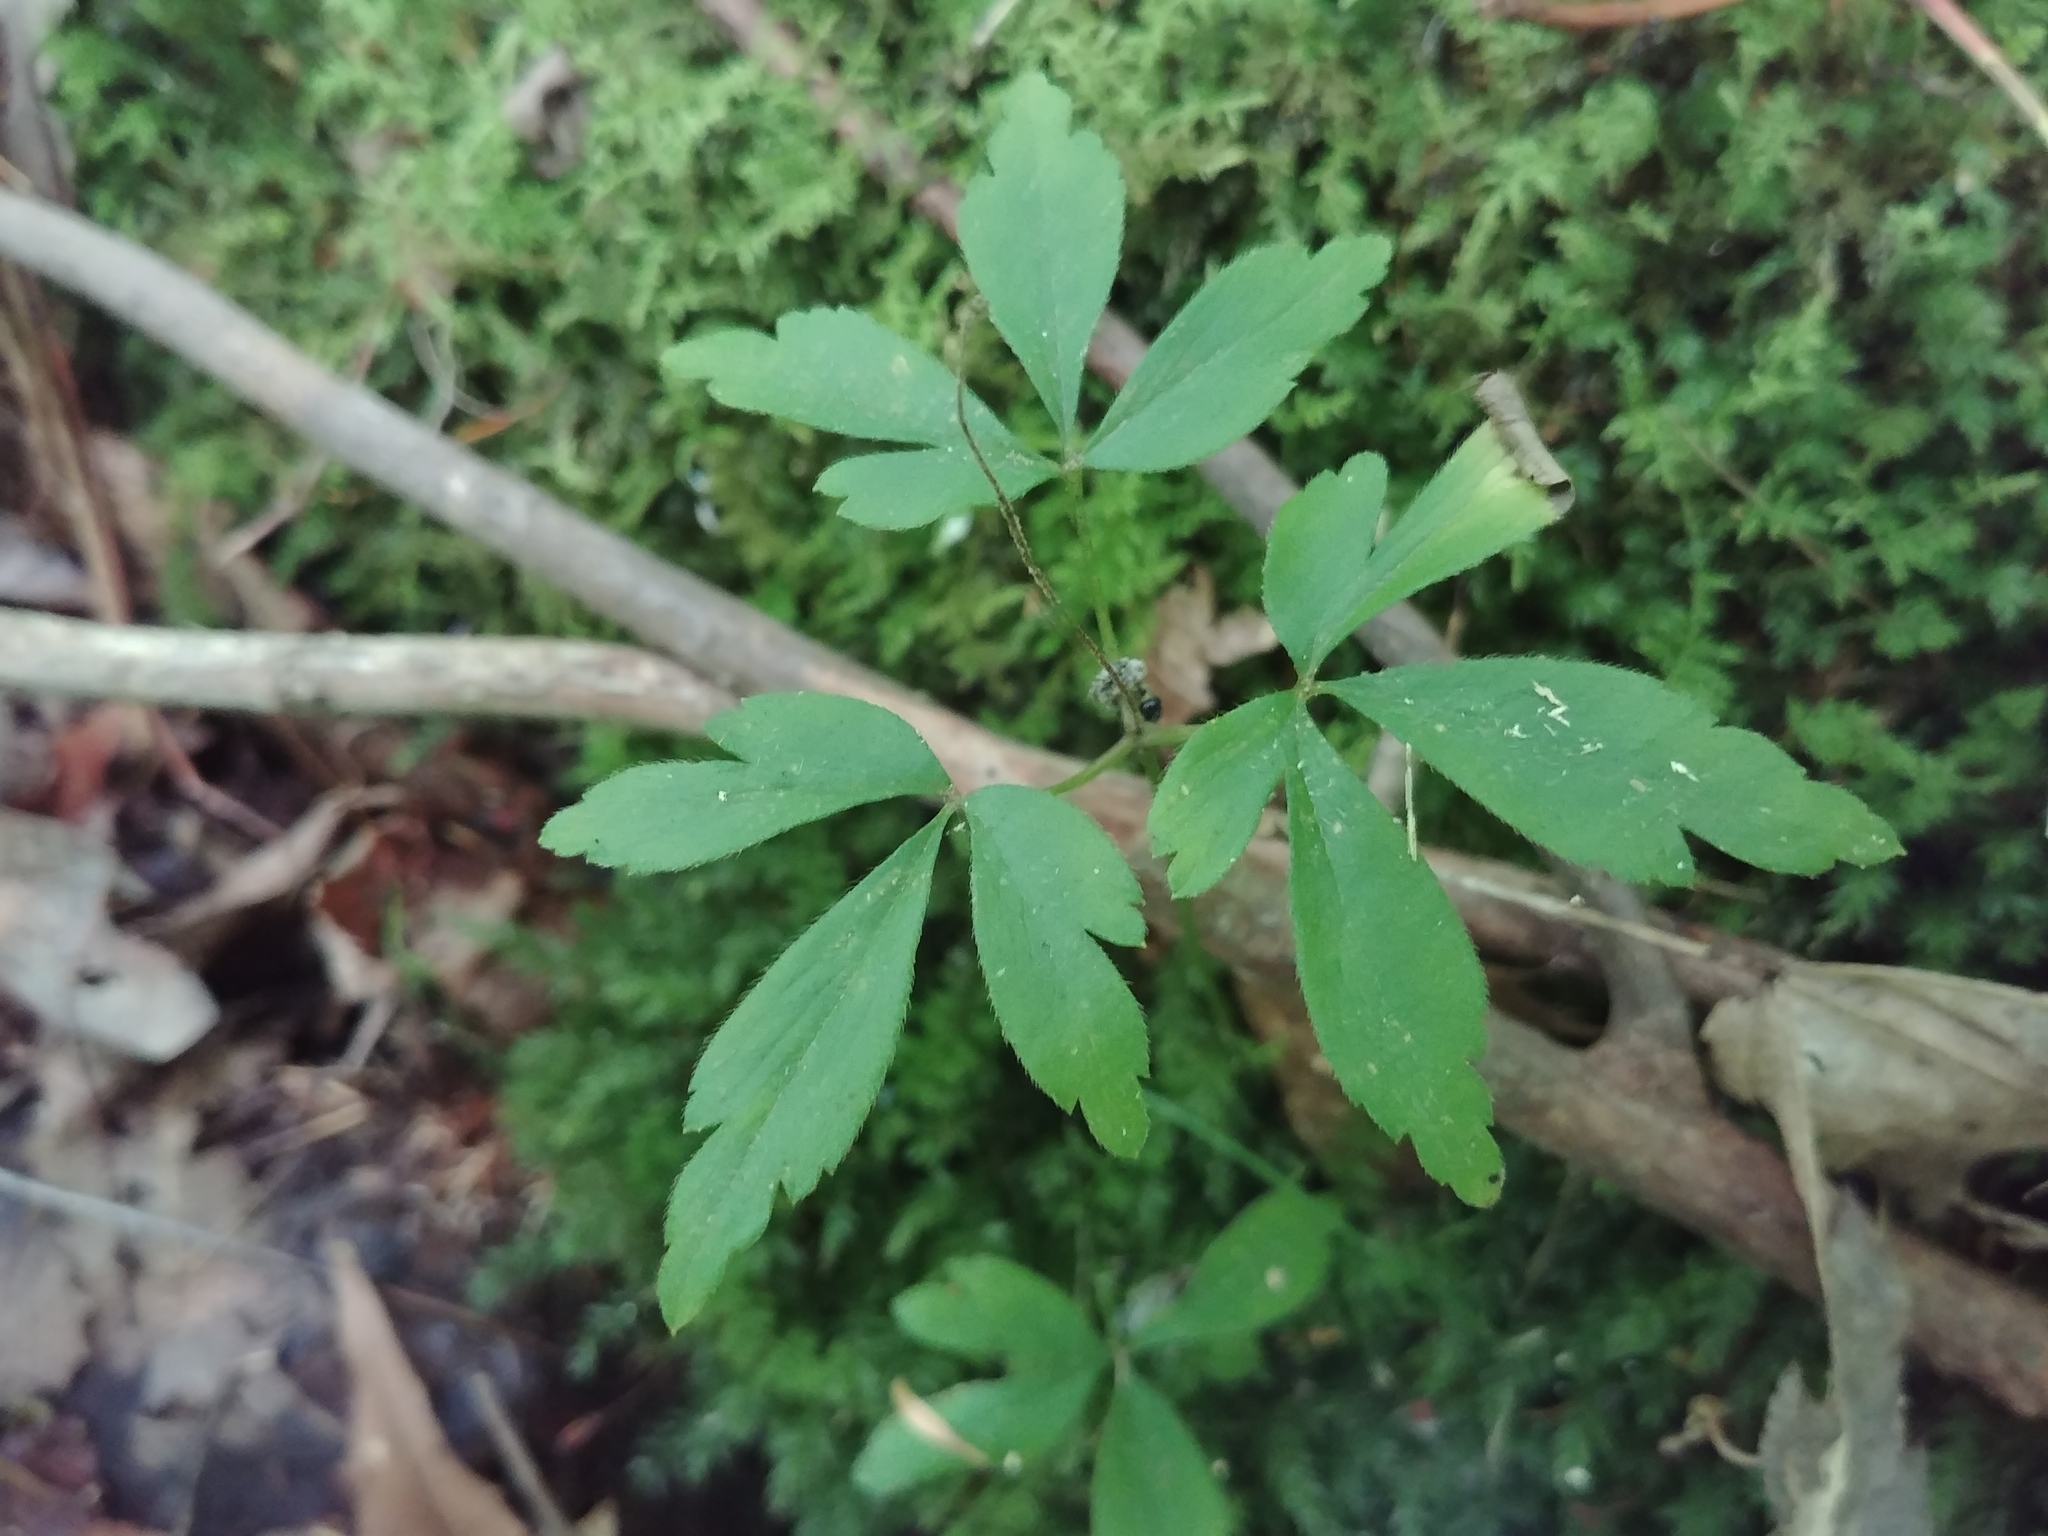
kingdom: Plantae
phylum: Tracheophyta
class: Magnoliopsida
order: Ranunculales
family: Ranunculaceae
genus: Anemone
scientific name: Anemone quinquefolia
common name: Wood anemone
